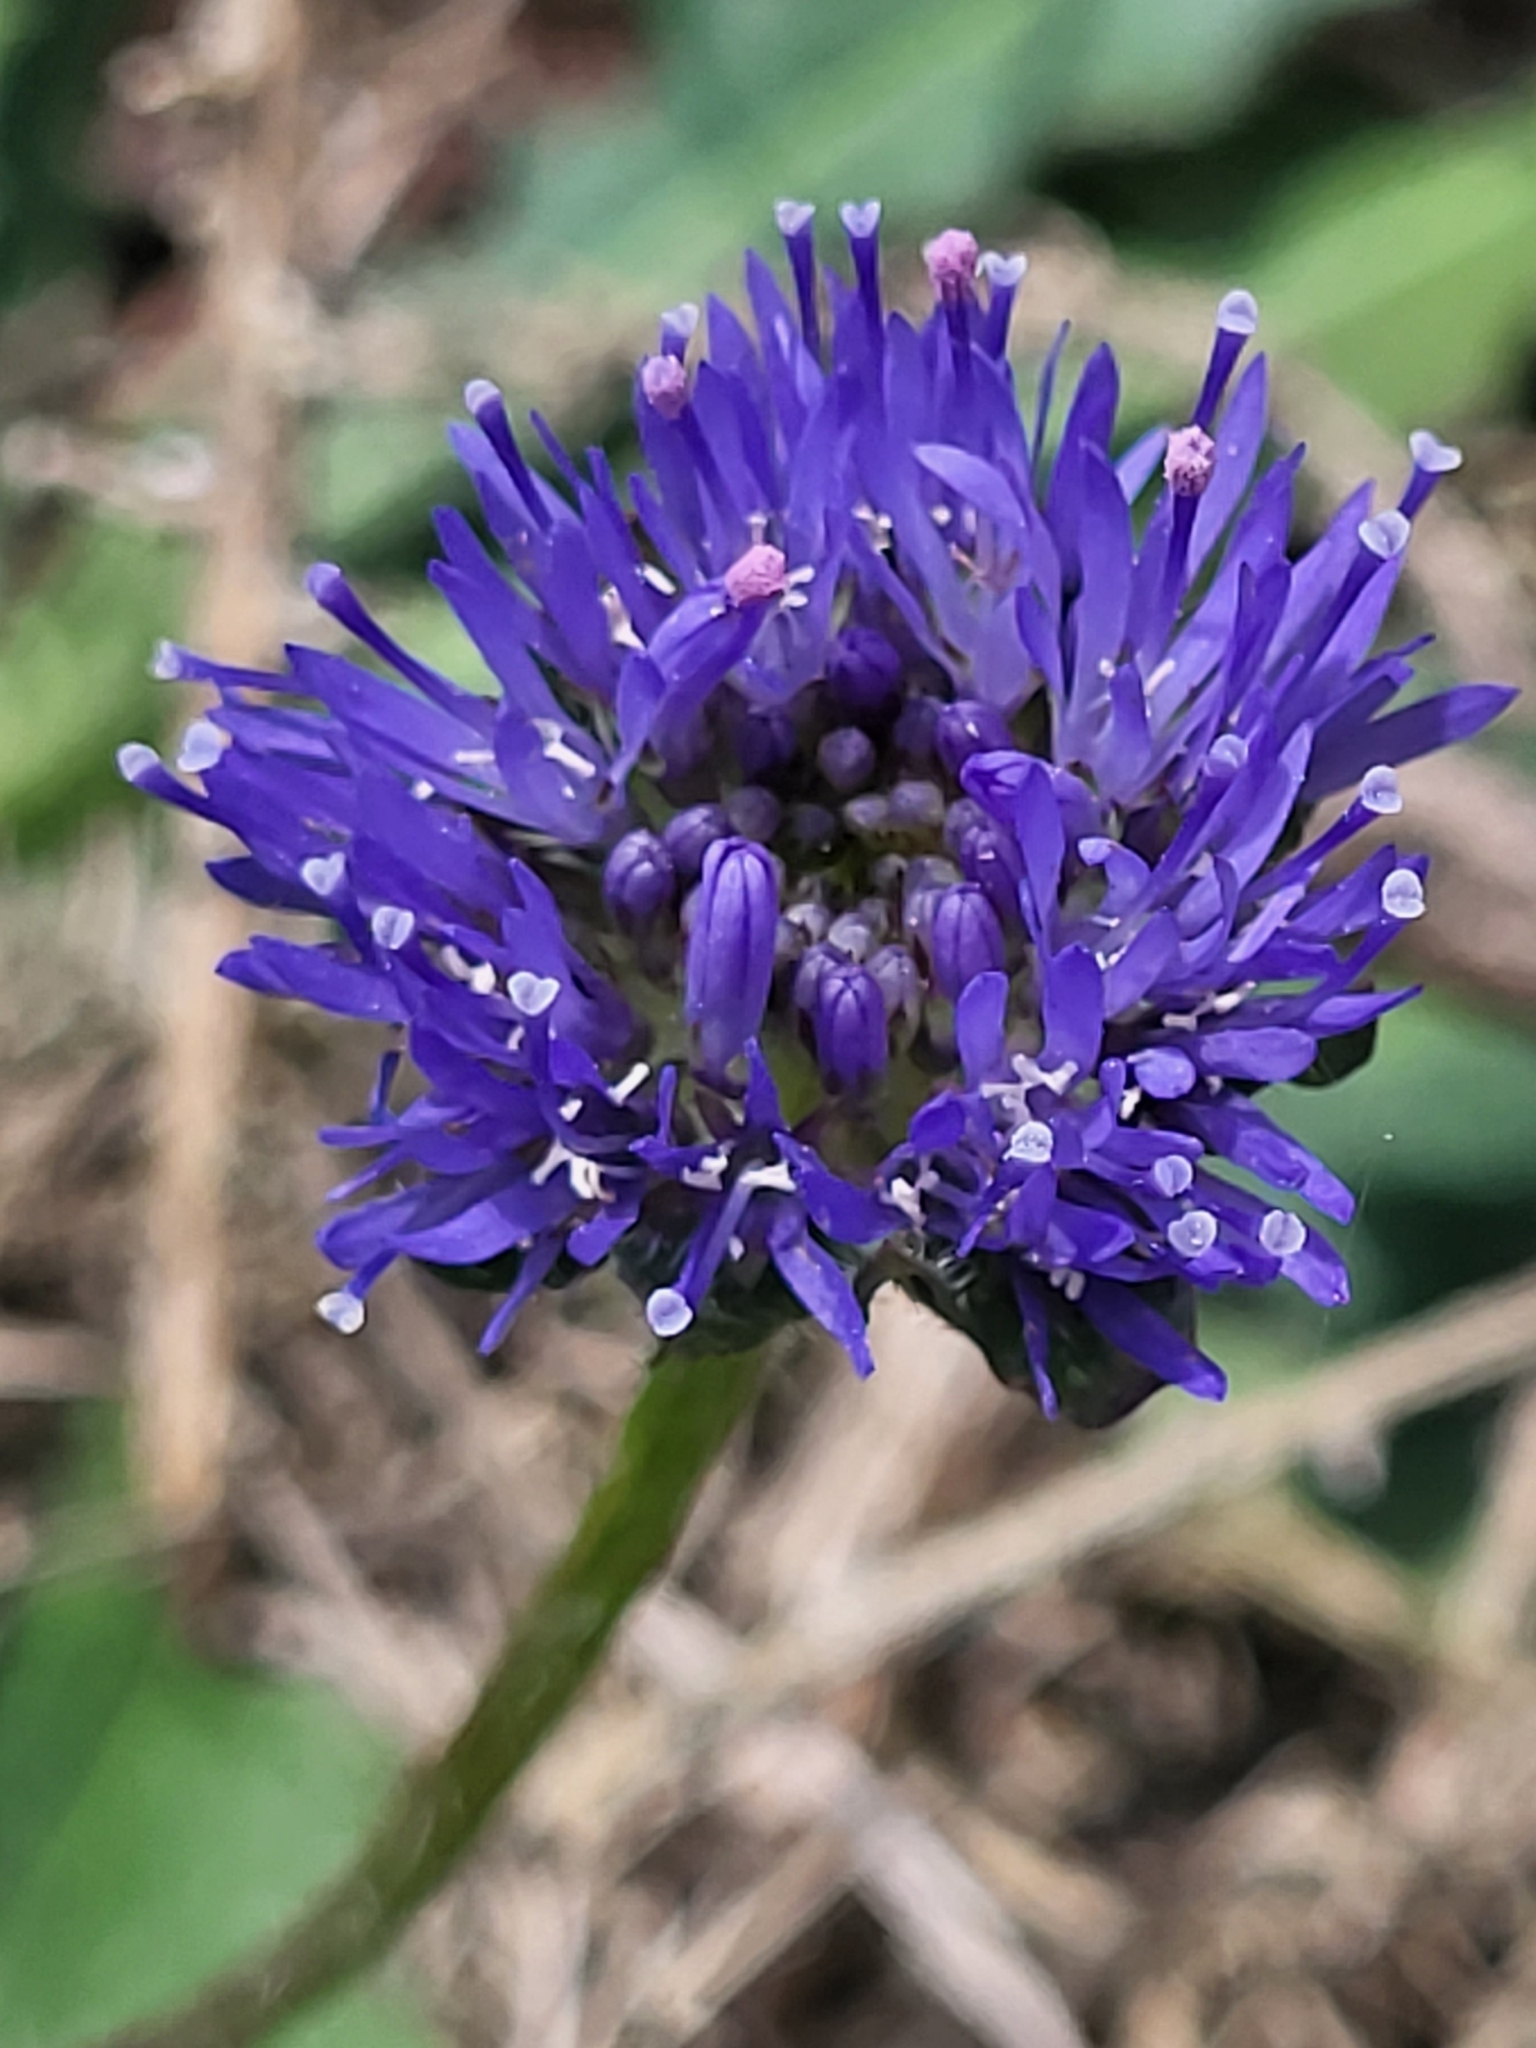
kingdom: Plantae
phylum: Tracheophyta
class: Magnoliopsida
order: Asterales
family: Campanulaceae
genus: Jasione
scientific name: Jasione montana
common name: Sheep's-bit
